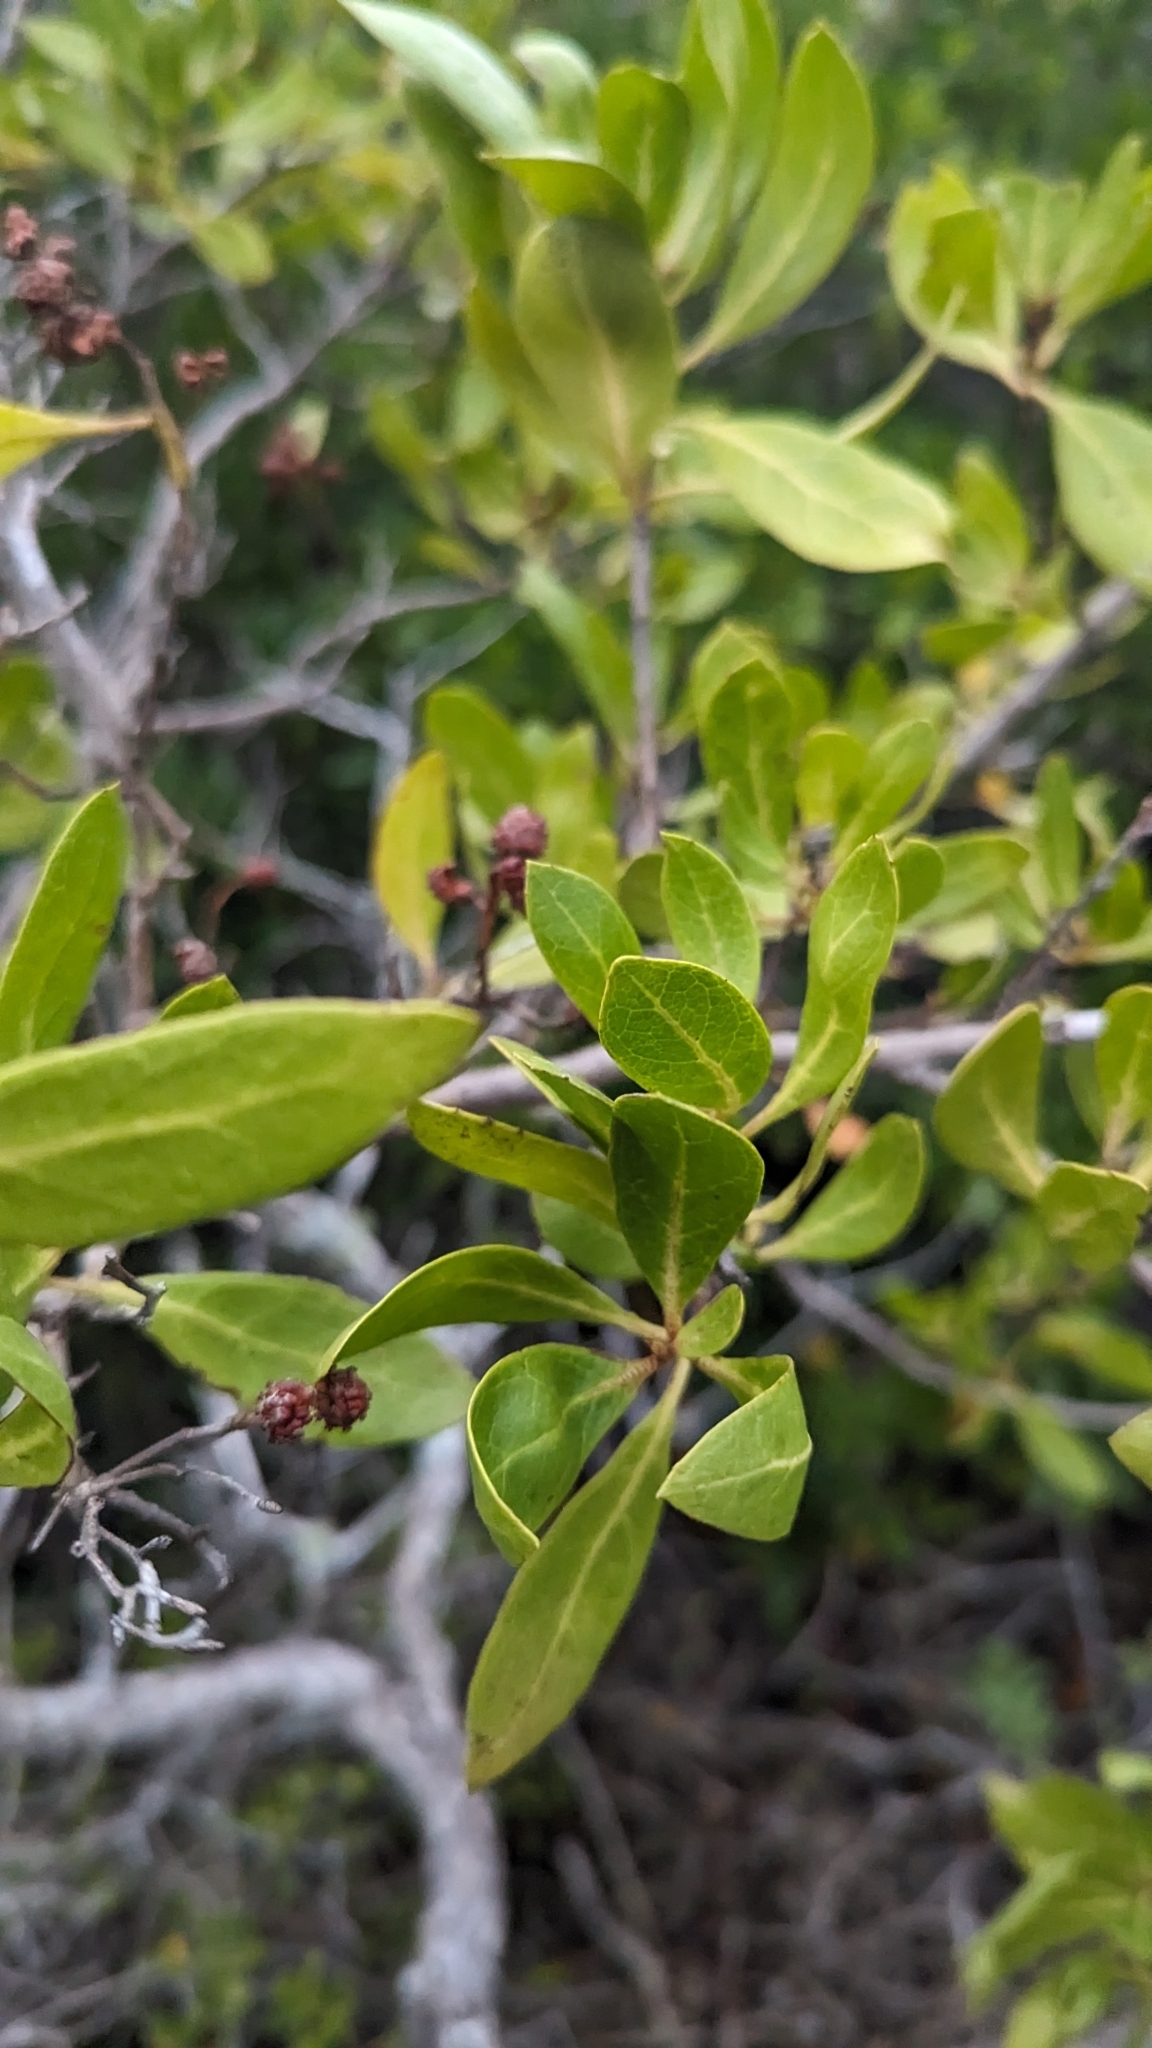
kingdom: Plantae
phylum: Tracheophyta
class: Magnoliopsida
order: Myrtales
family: Combretaceae
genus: Conocarpus
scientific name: Conocarpus erectus
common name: Button mangrove
